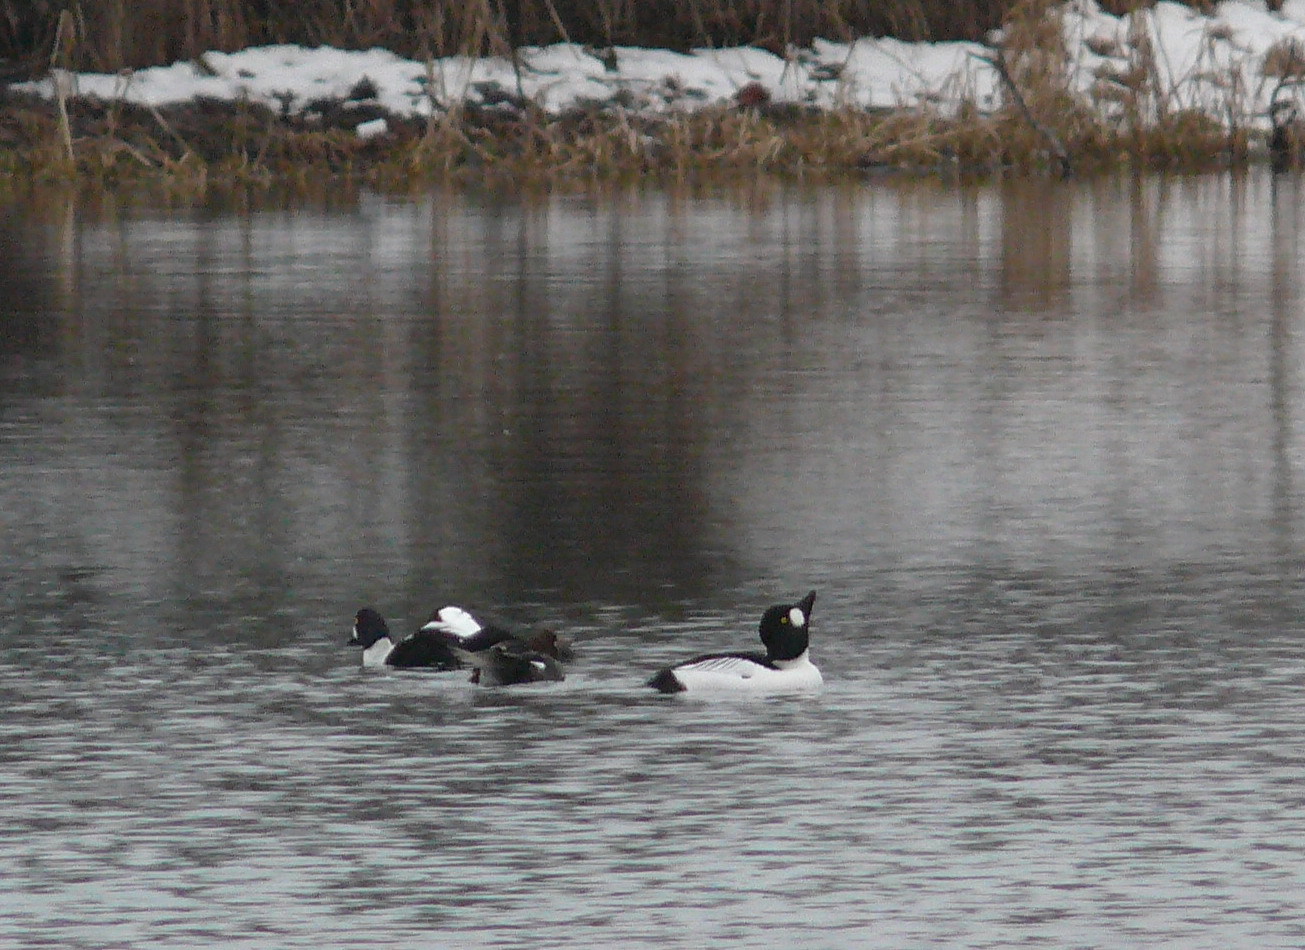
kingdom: Animalia
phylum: Chordata
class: Aves
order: Anseriformes
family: Anatidae
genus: Bucephala
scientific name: Bucephala clangula
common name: Common goldeneye
